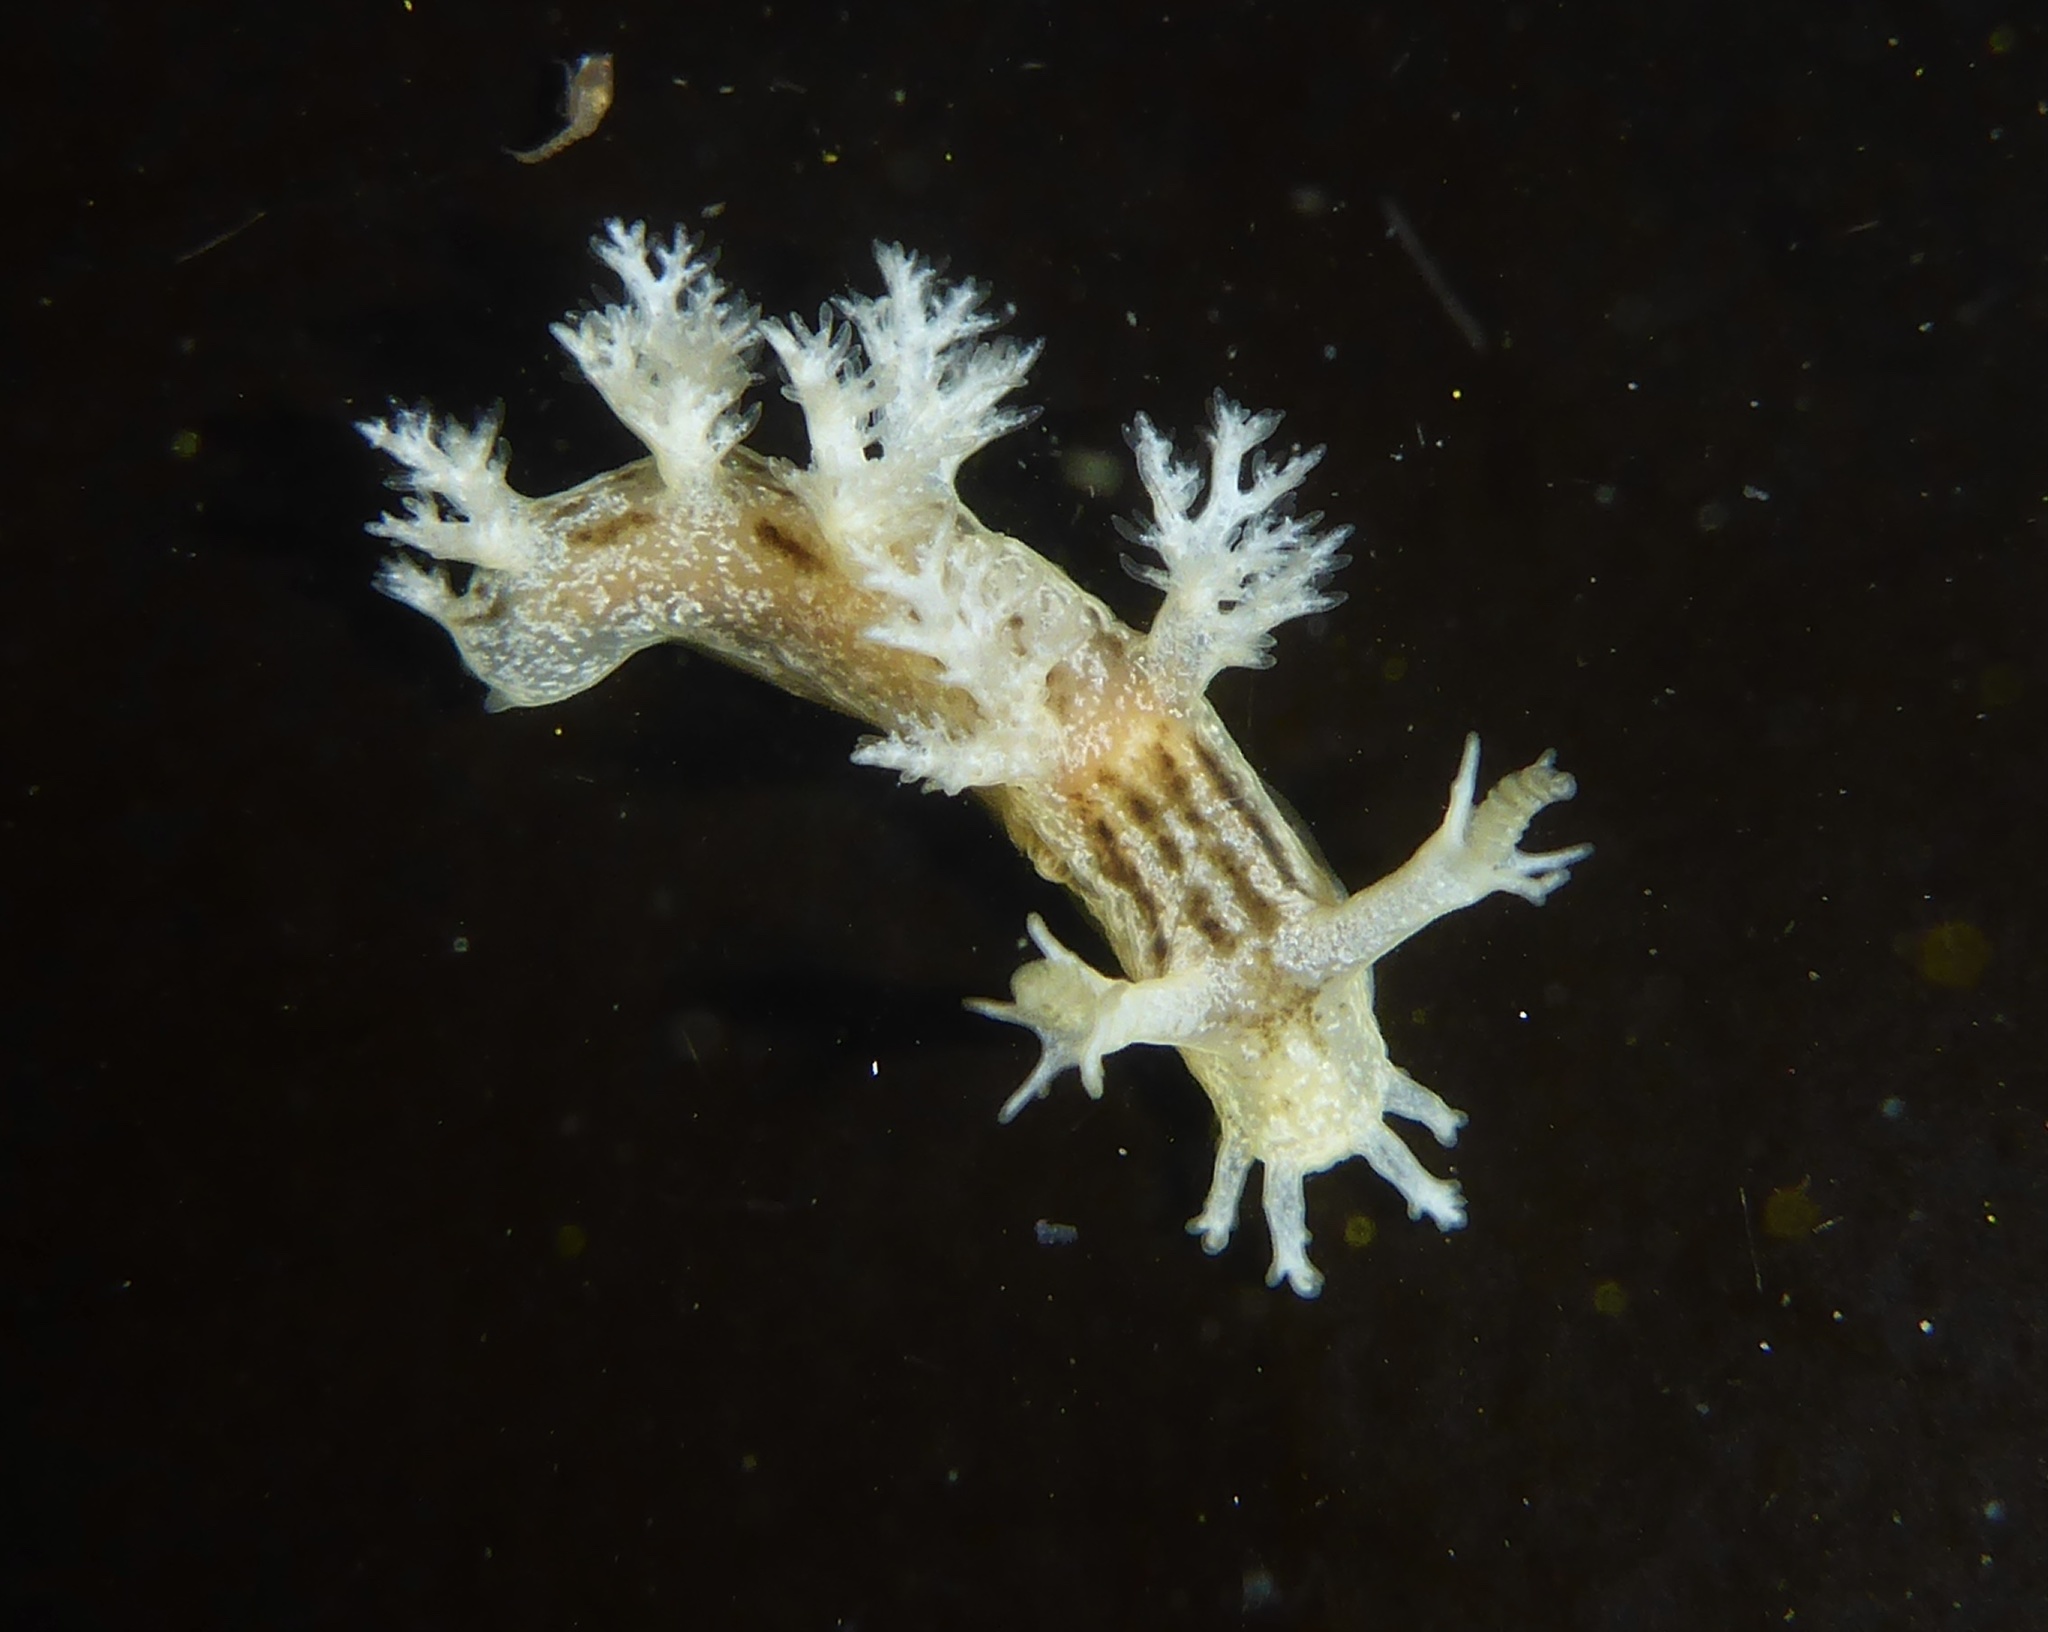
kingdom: Animalia
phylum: Mollusca
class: Gastropoda
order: Nudibranchia
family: Dendronotidae
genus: Dendronotus
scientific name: Dendronotus subramosus
